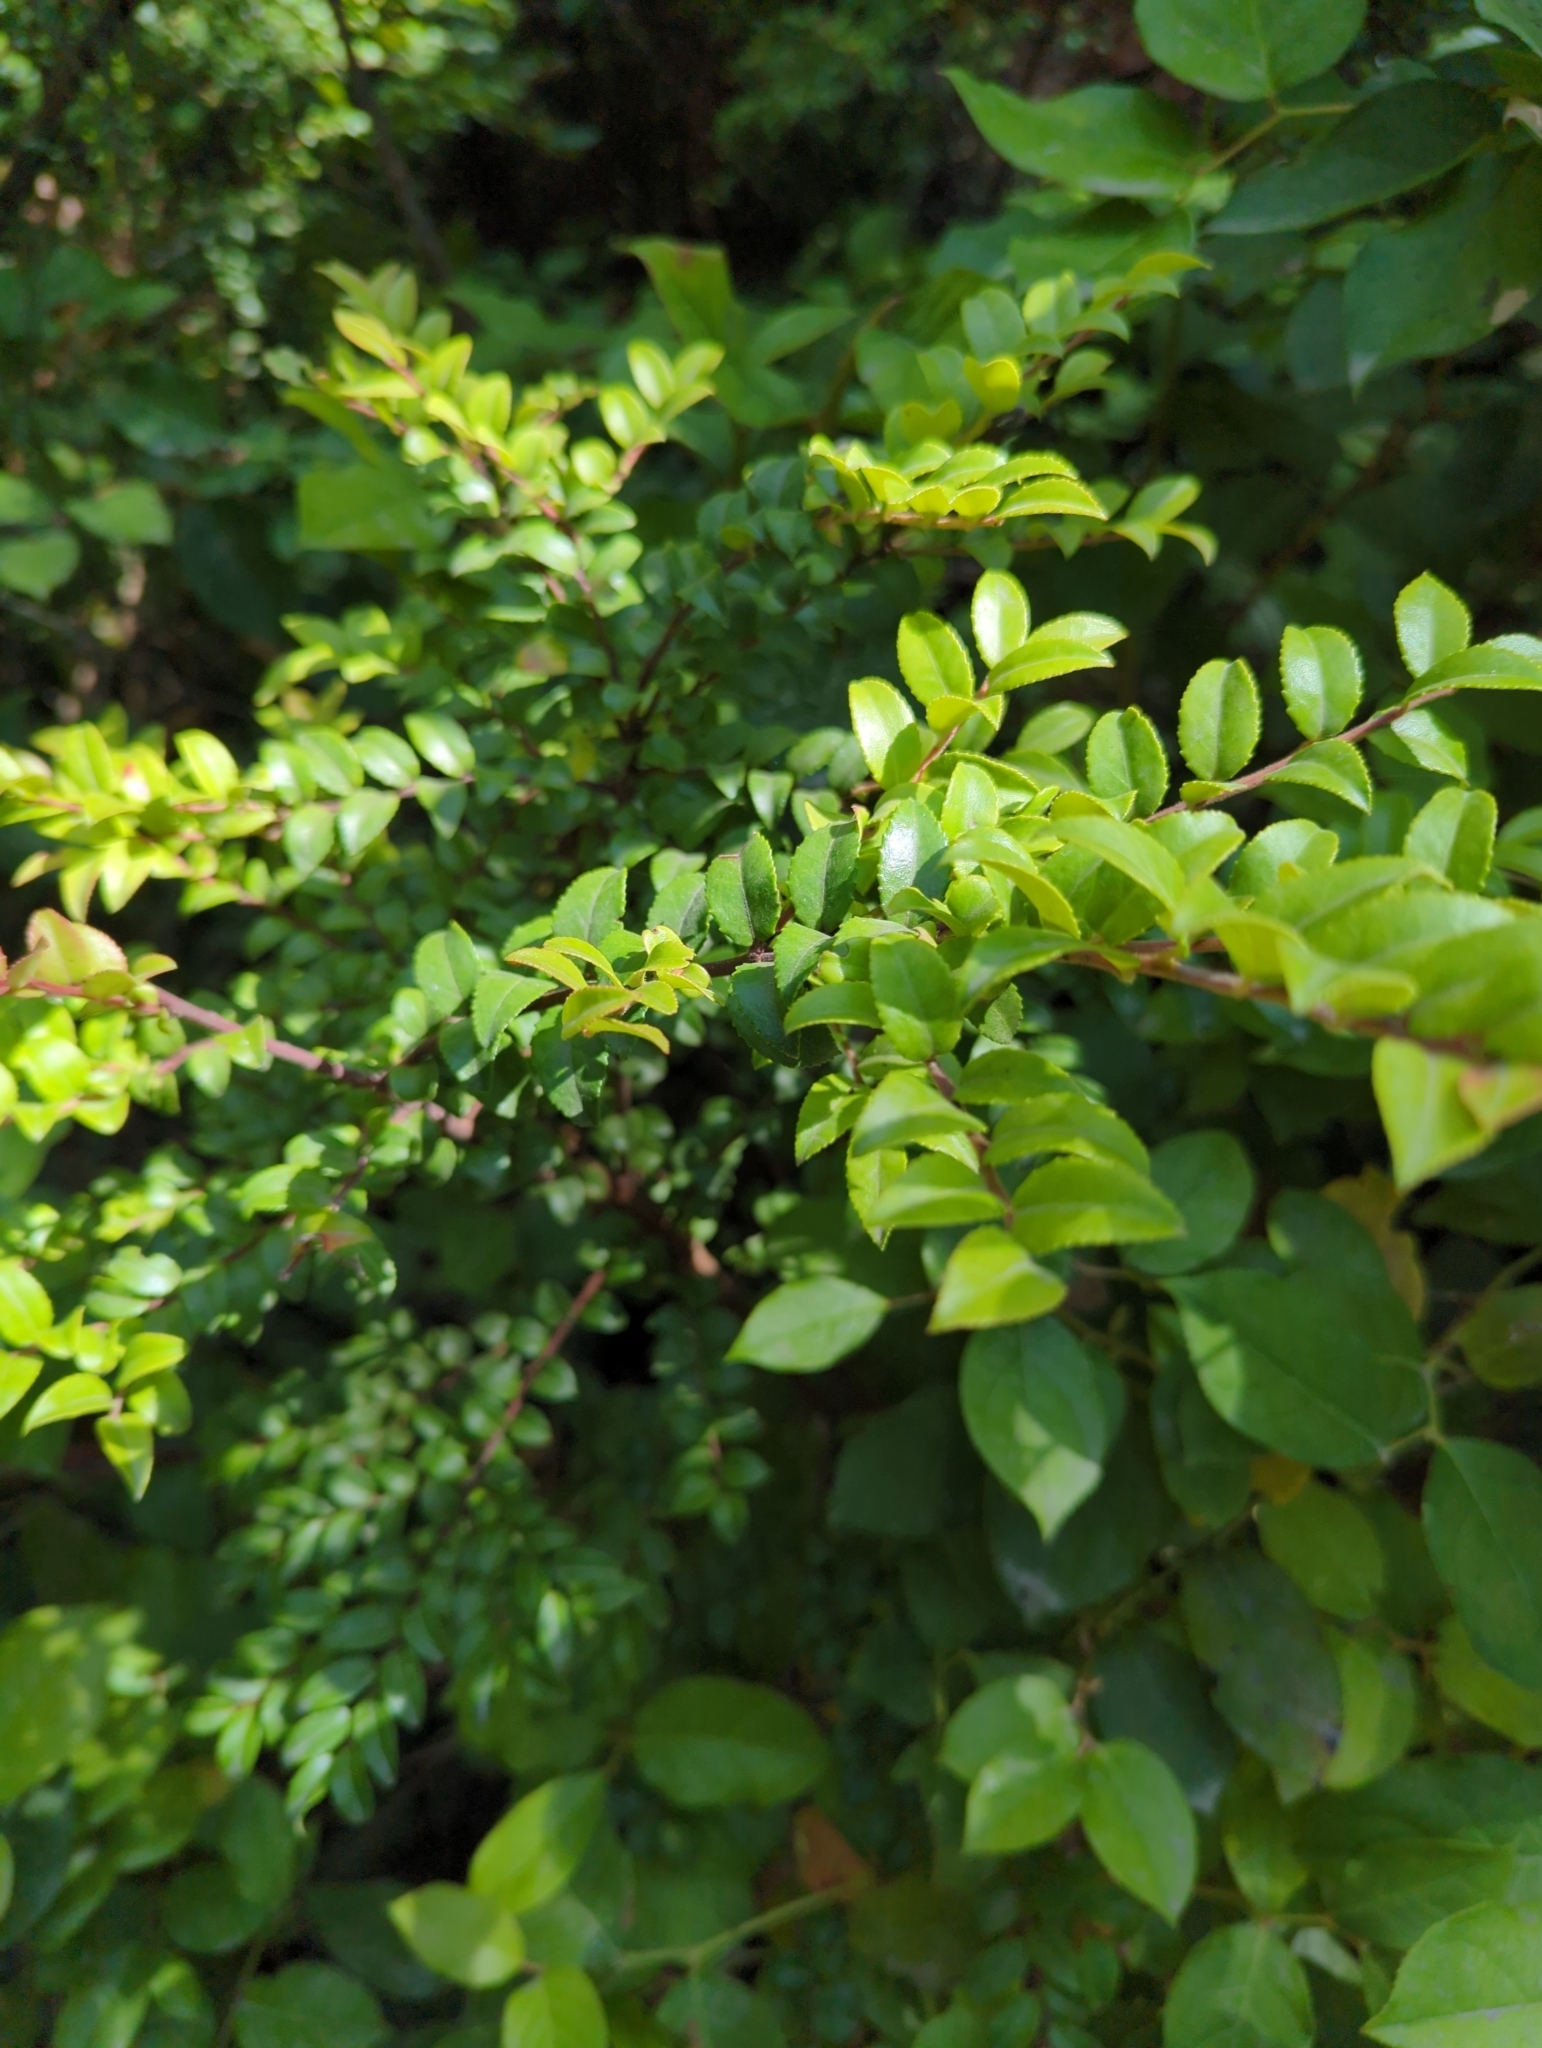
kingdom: Plantae
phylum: Tracheophyta
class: Magnoliopsida
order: Ericales
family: Ericaceae
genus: Vaccinium
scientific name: Vaccinium ovatum
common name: California-huckleberry
